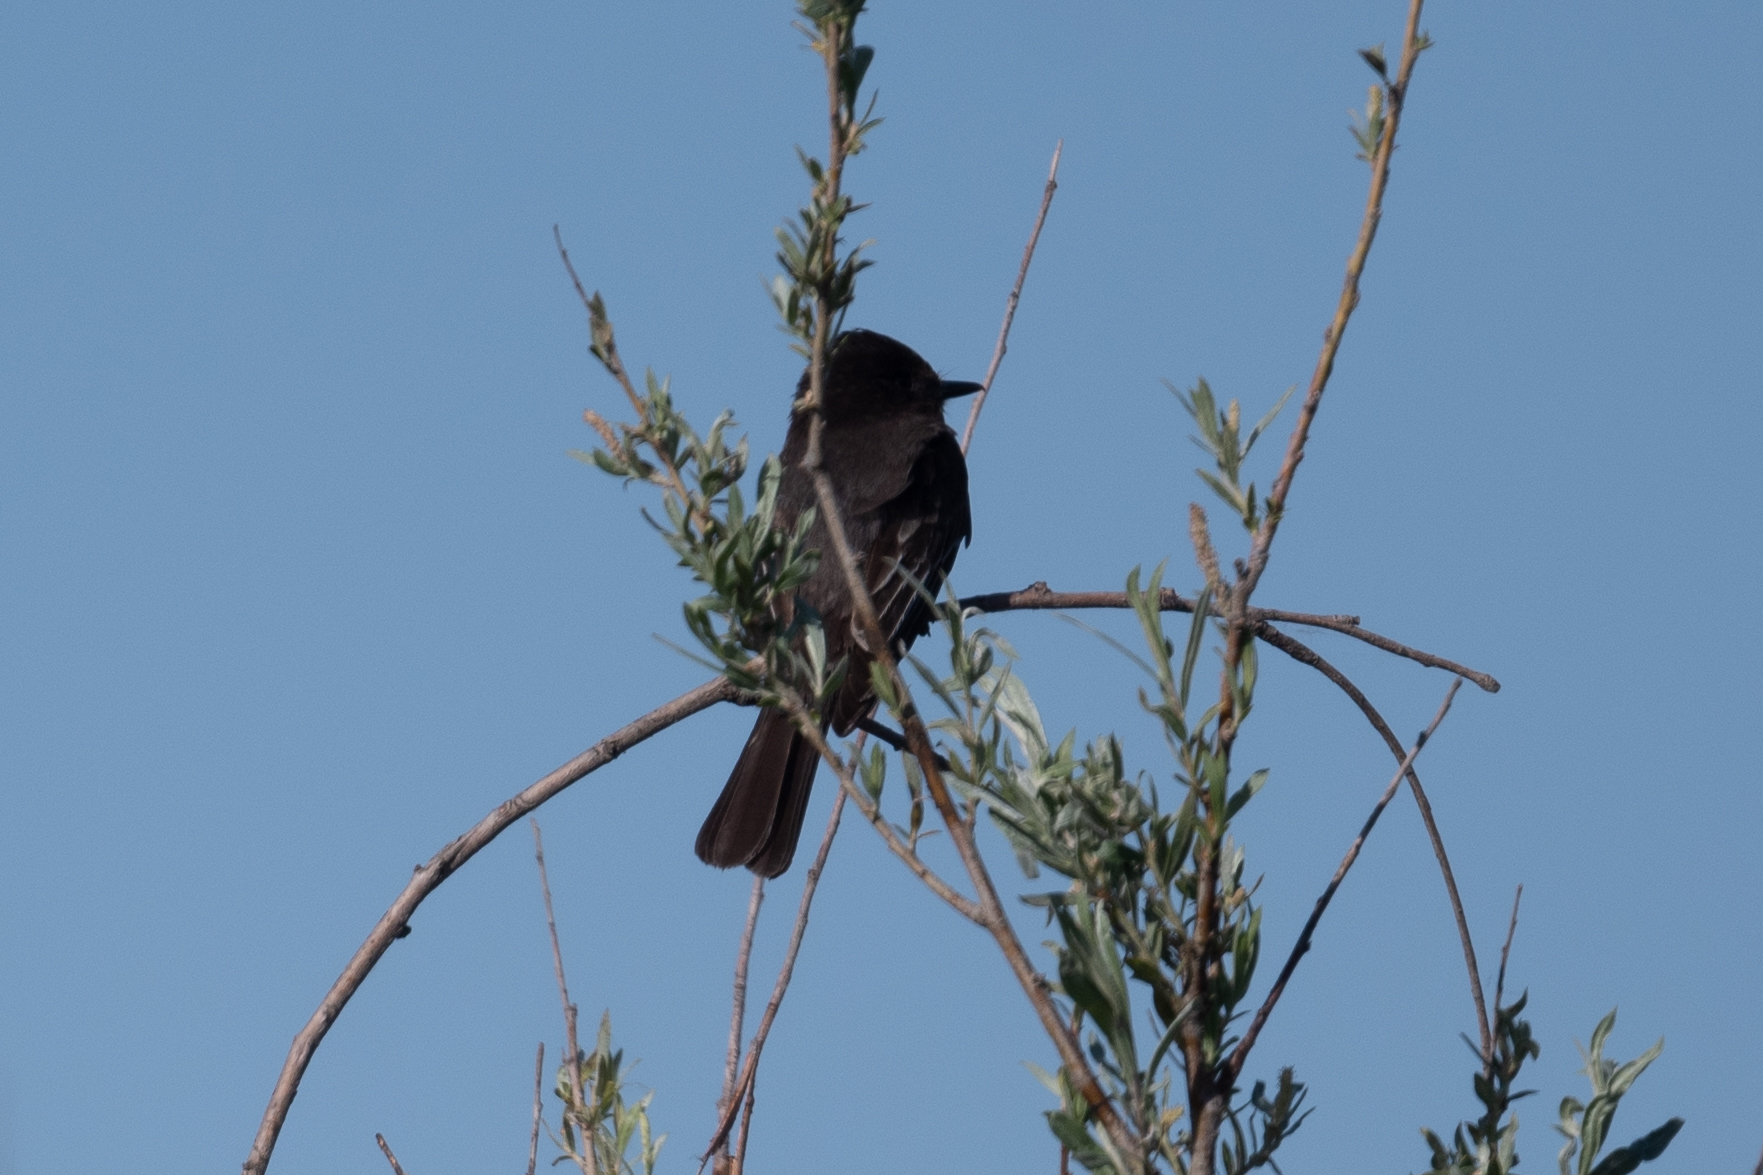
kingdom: Animalia
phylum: Chordata
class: Aves
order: Passeriformes
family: Tyrannidae
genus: Sayornis
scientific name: Sayornis nigricans
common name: Black phoebe
